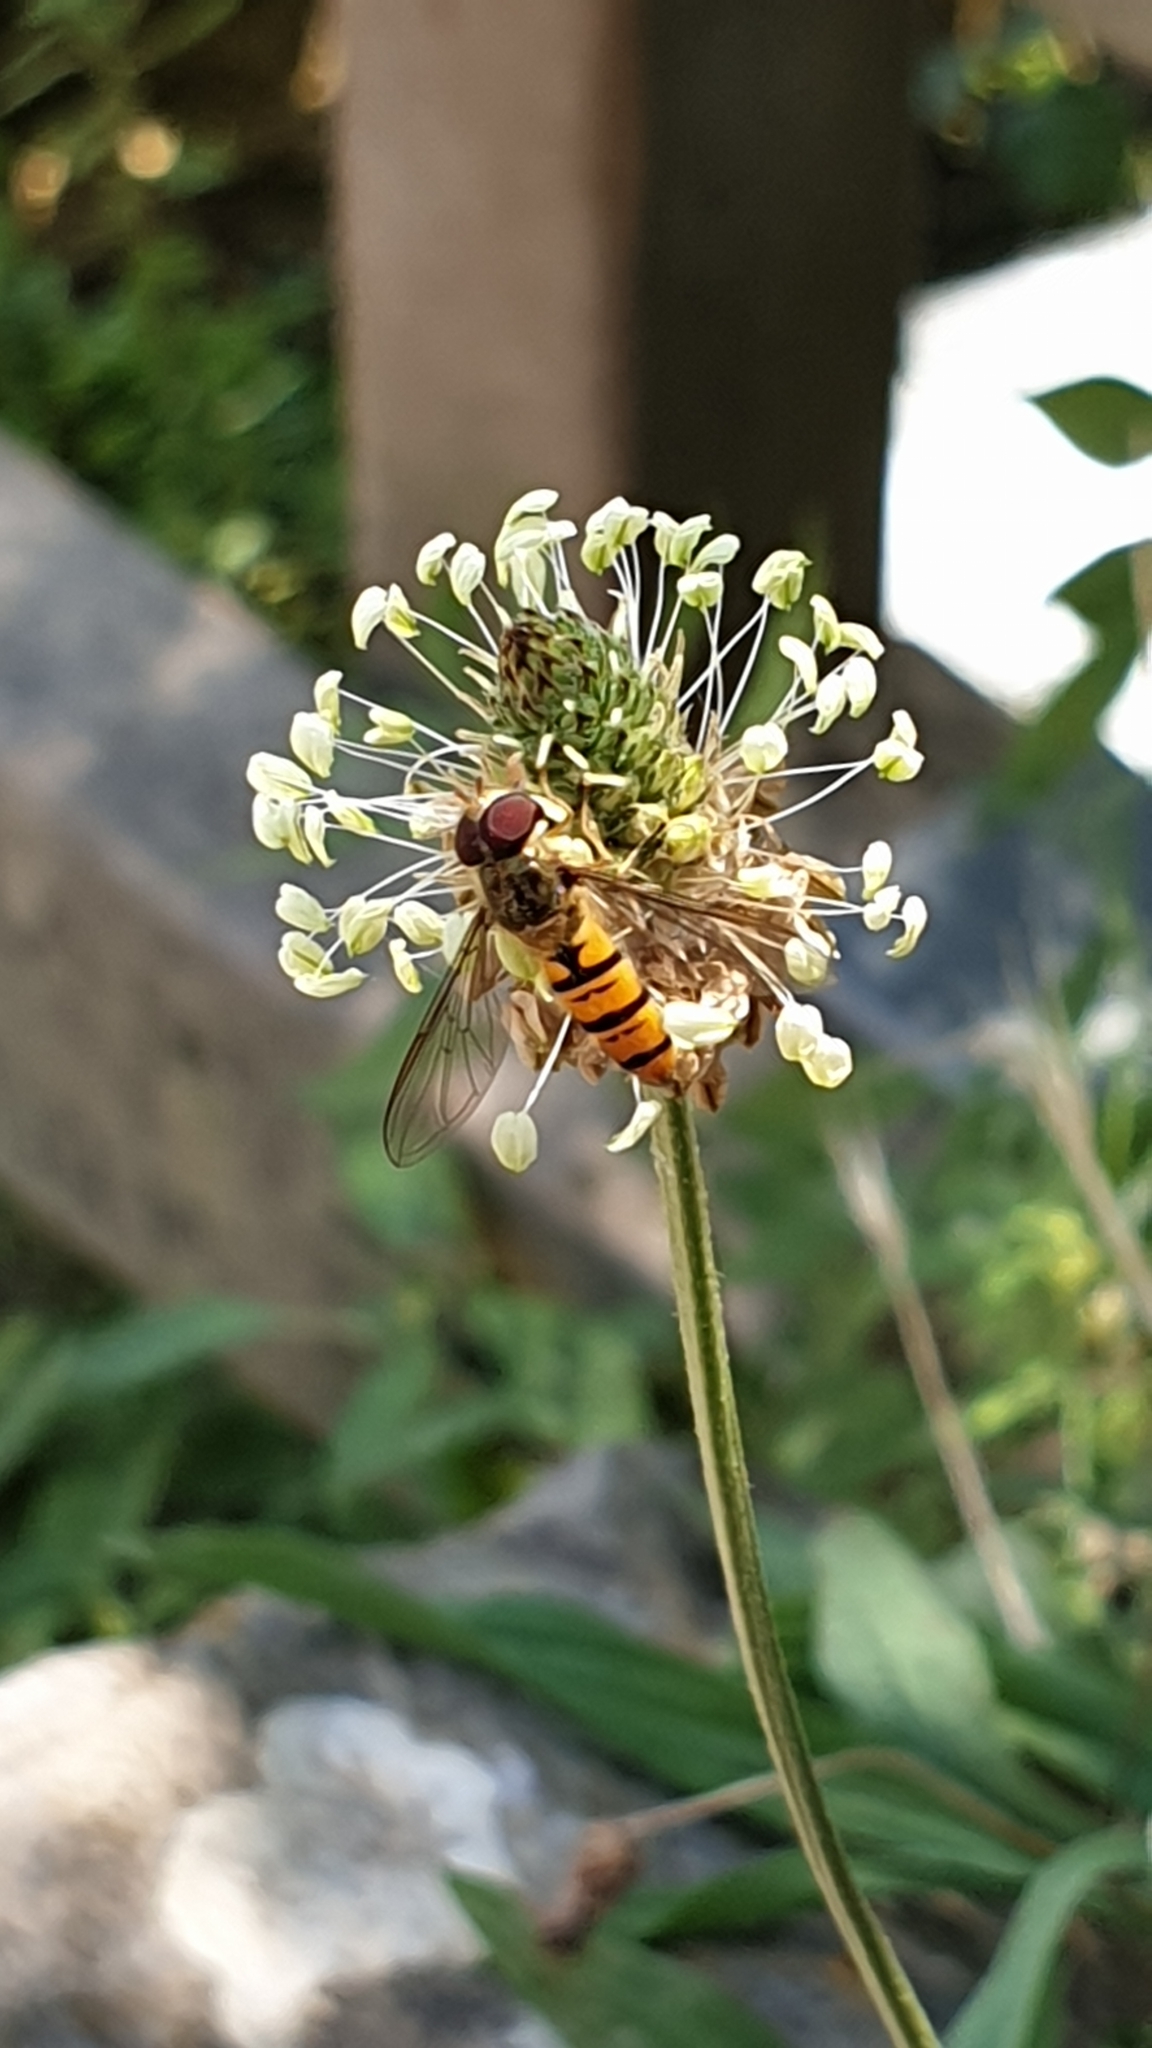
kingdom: Animalia
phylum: Arthropoda
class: Insecta
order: Diptera
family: Syrphidae
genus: Episyrphus
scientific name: Episyrphus balteatus
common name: Marmalade hoverfly
